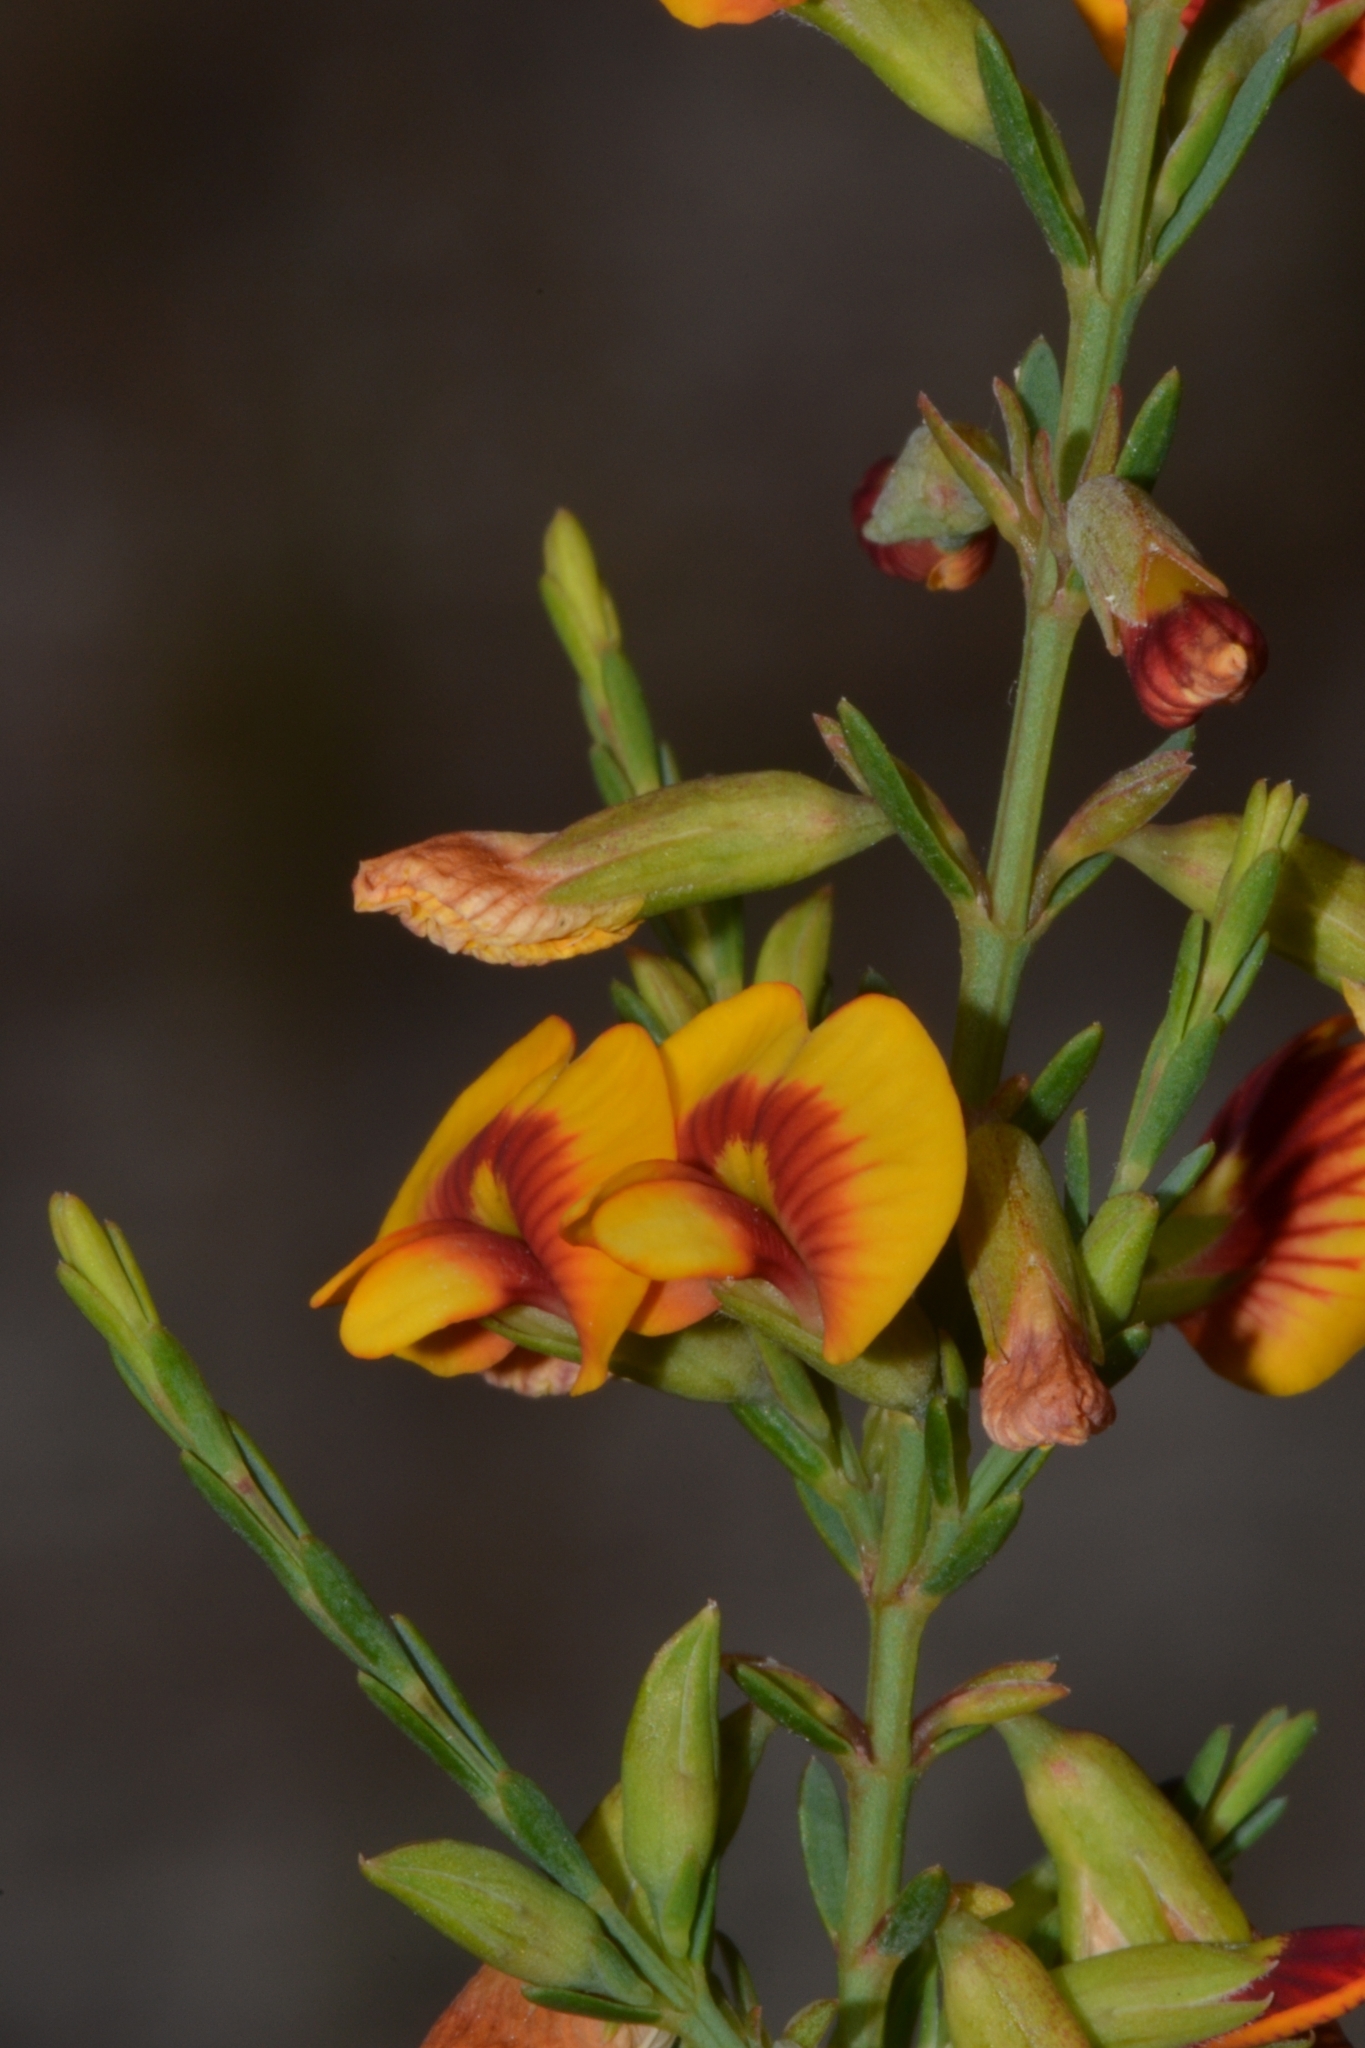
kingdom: Plantae
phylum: Tracheophyta
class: Magnoliopsida
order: Fabales
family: Fabaceae
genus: Eutaxia
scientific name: Eutaxia virgata
